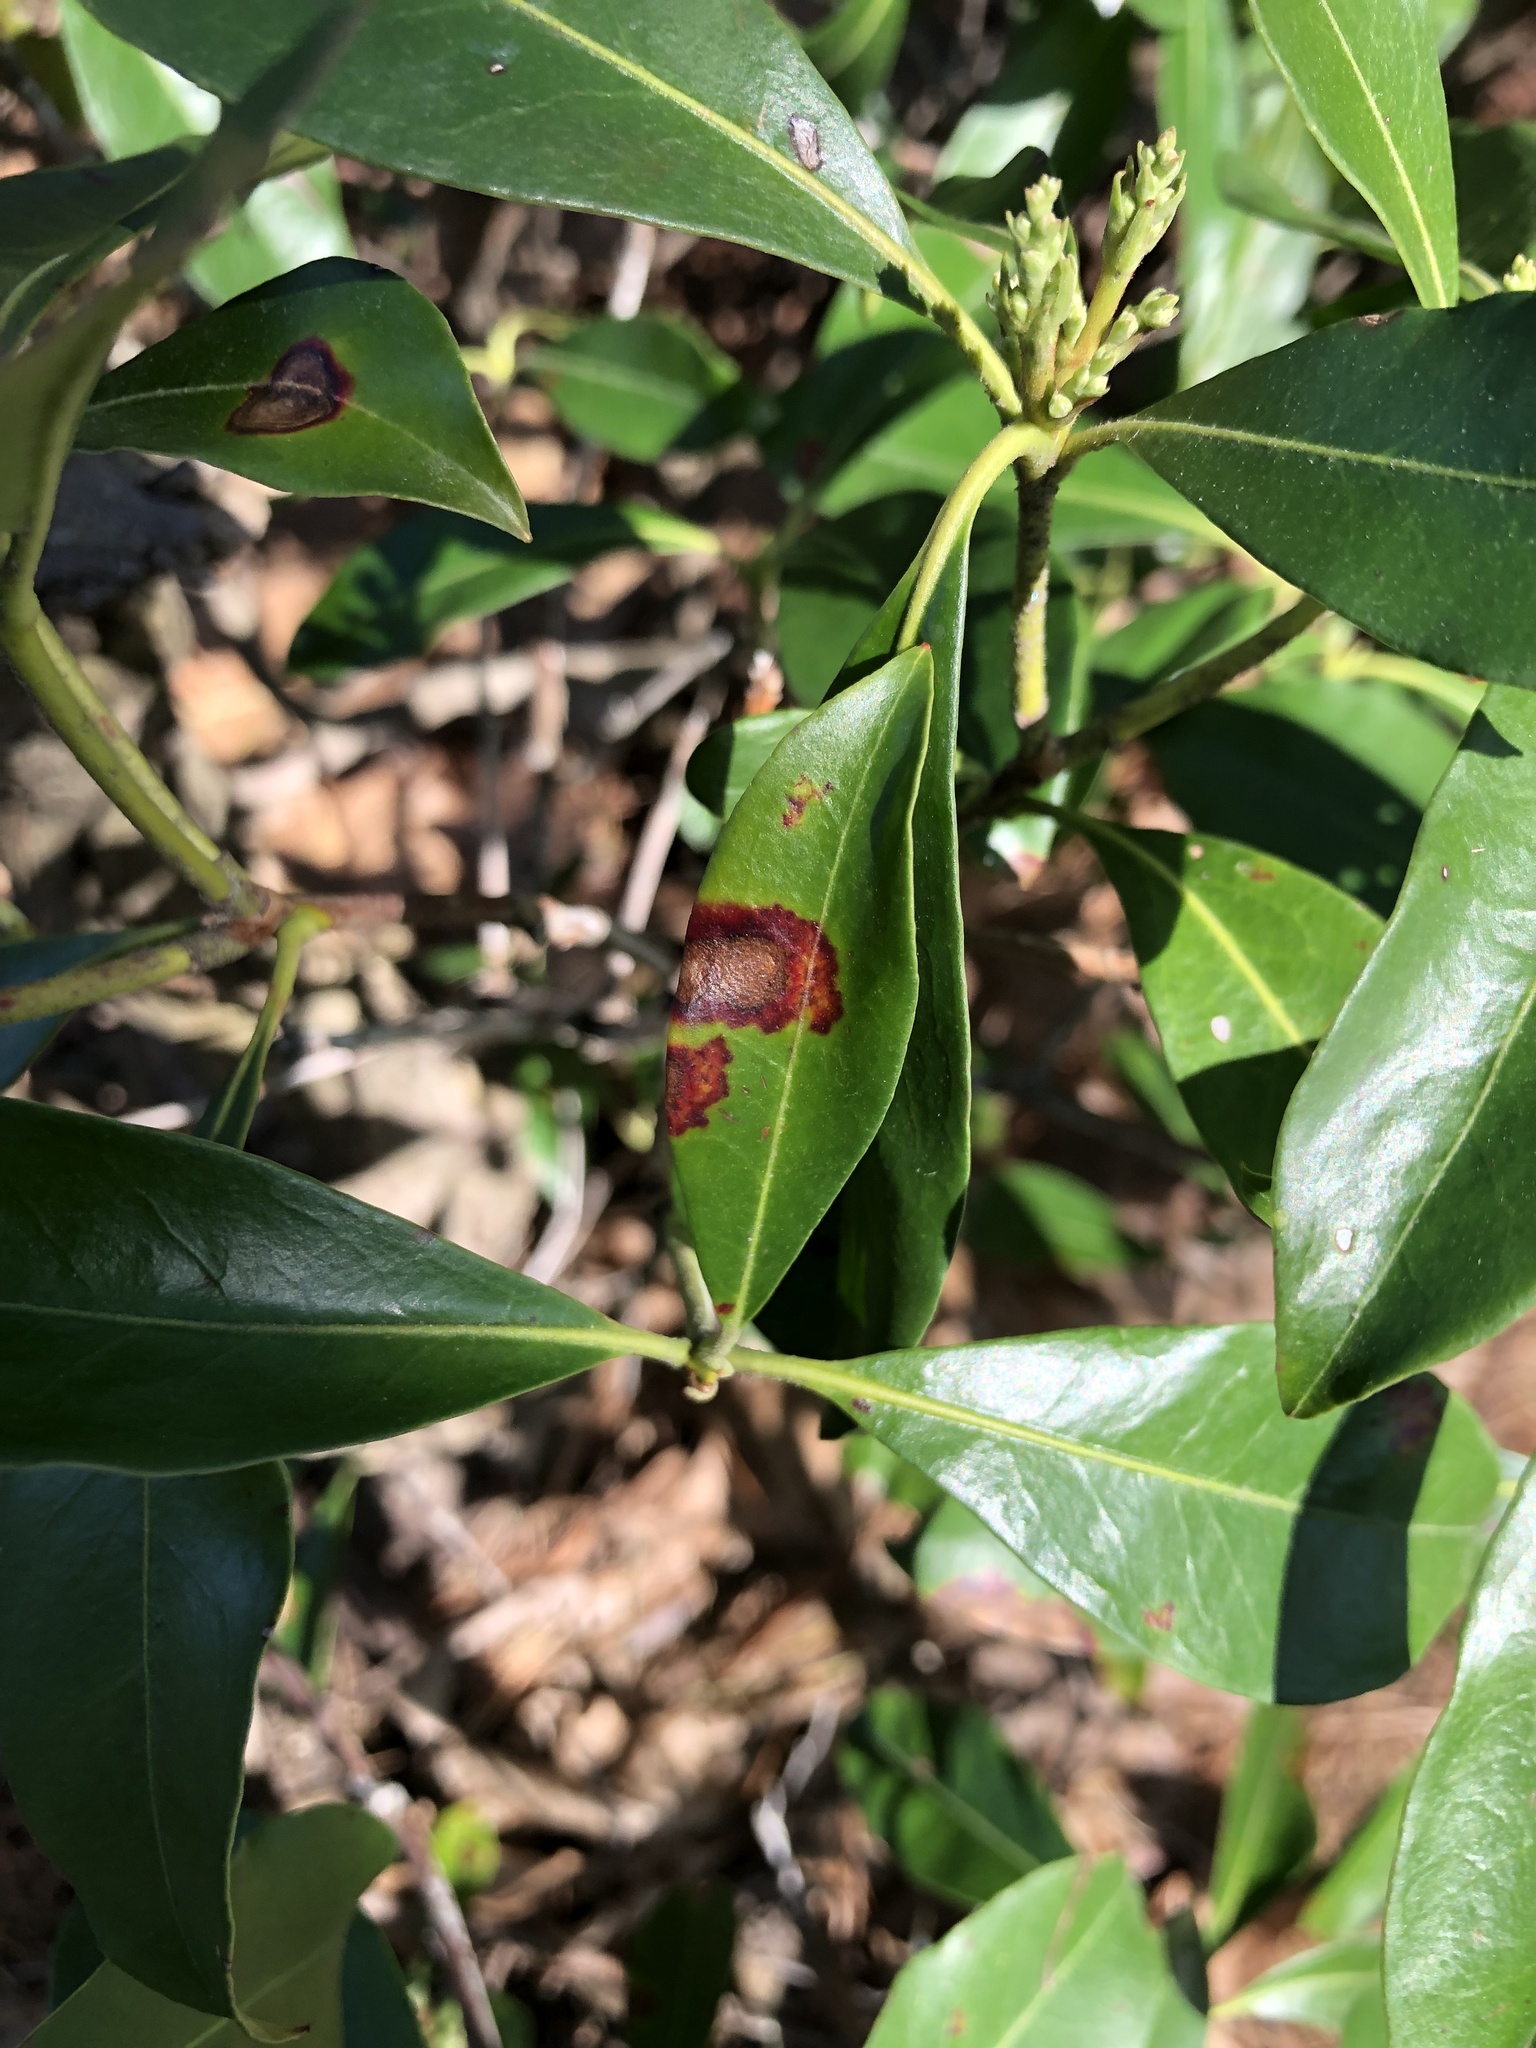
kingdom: Plantae
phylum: Tracheophyta
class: Magnoliopsida
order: Ericales
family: Ericaceae
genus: Kalmia
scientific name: Kalmia latifolia
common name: Mountain-laurel
